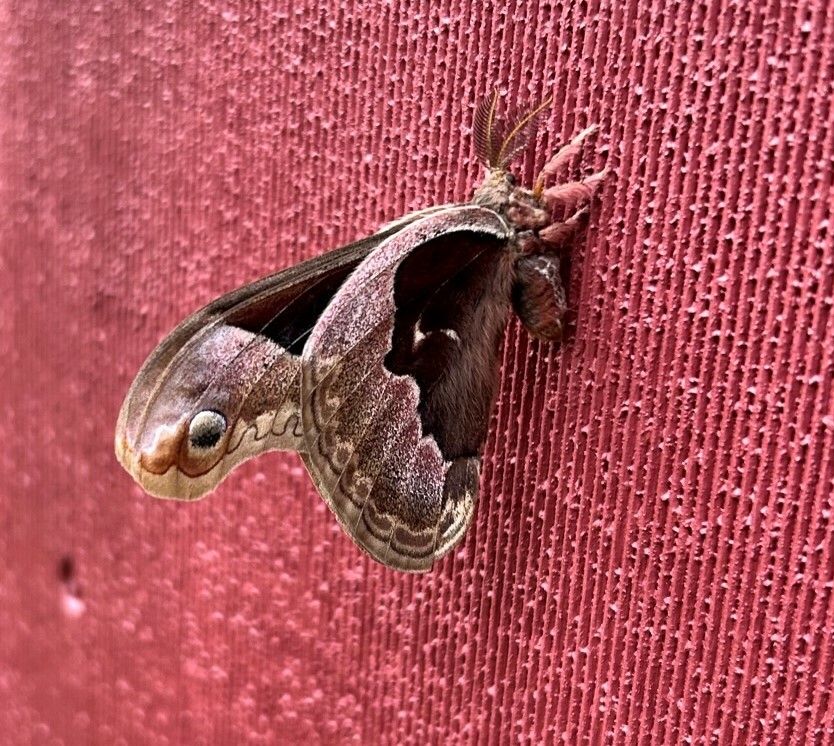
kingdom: Animalia
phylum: Arthropoda
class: Insecta
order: Lepidoptera
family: Saturniidae
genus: Callosamia
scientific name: Callosamia promethea
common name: Promethea silkmoth
